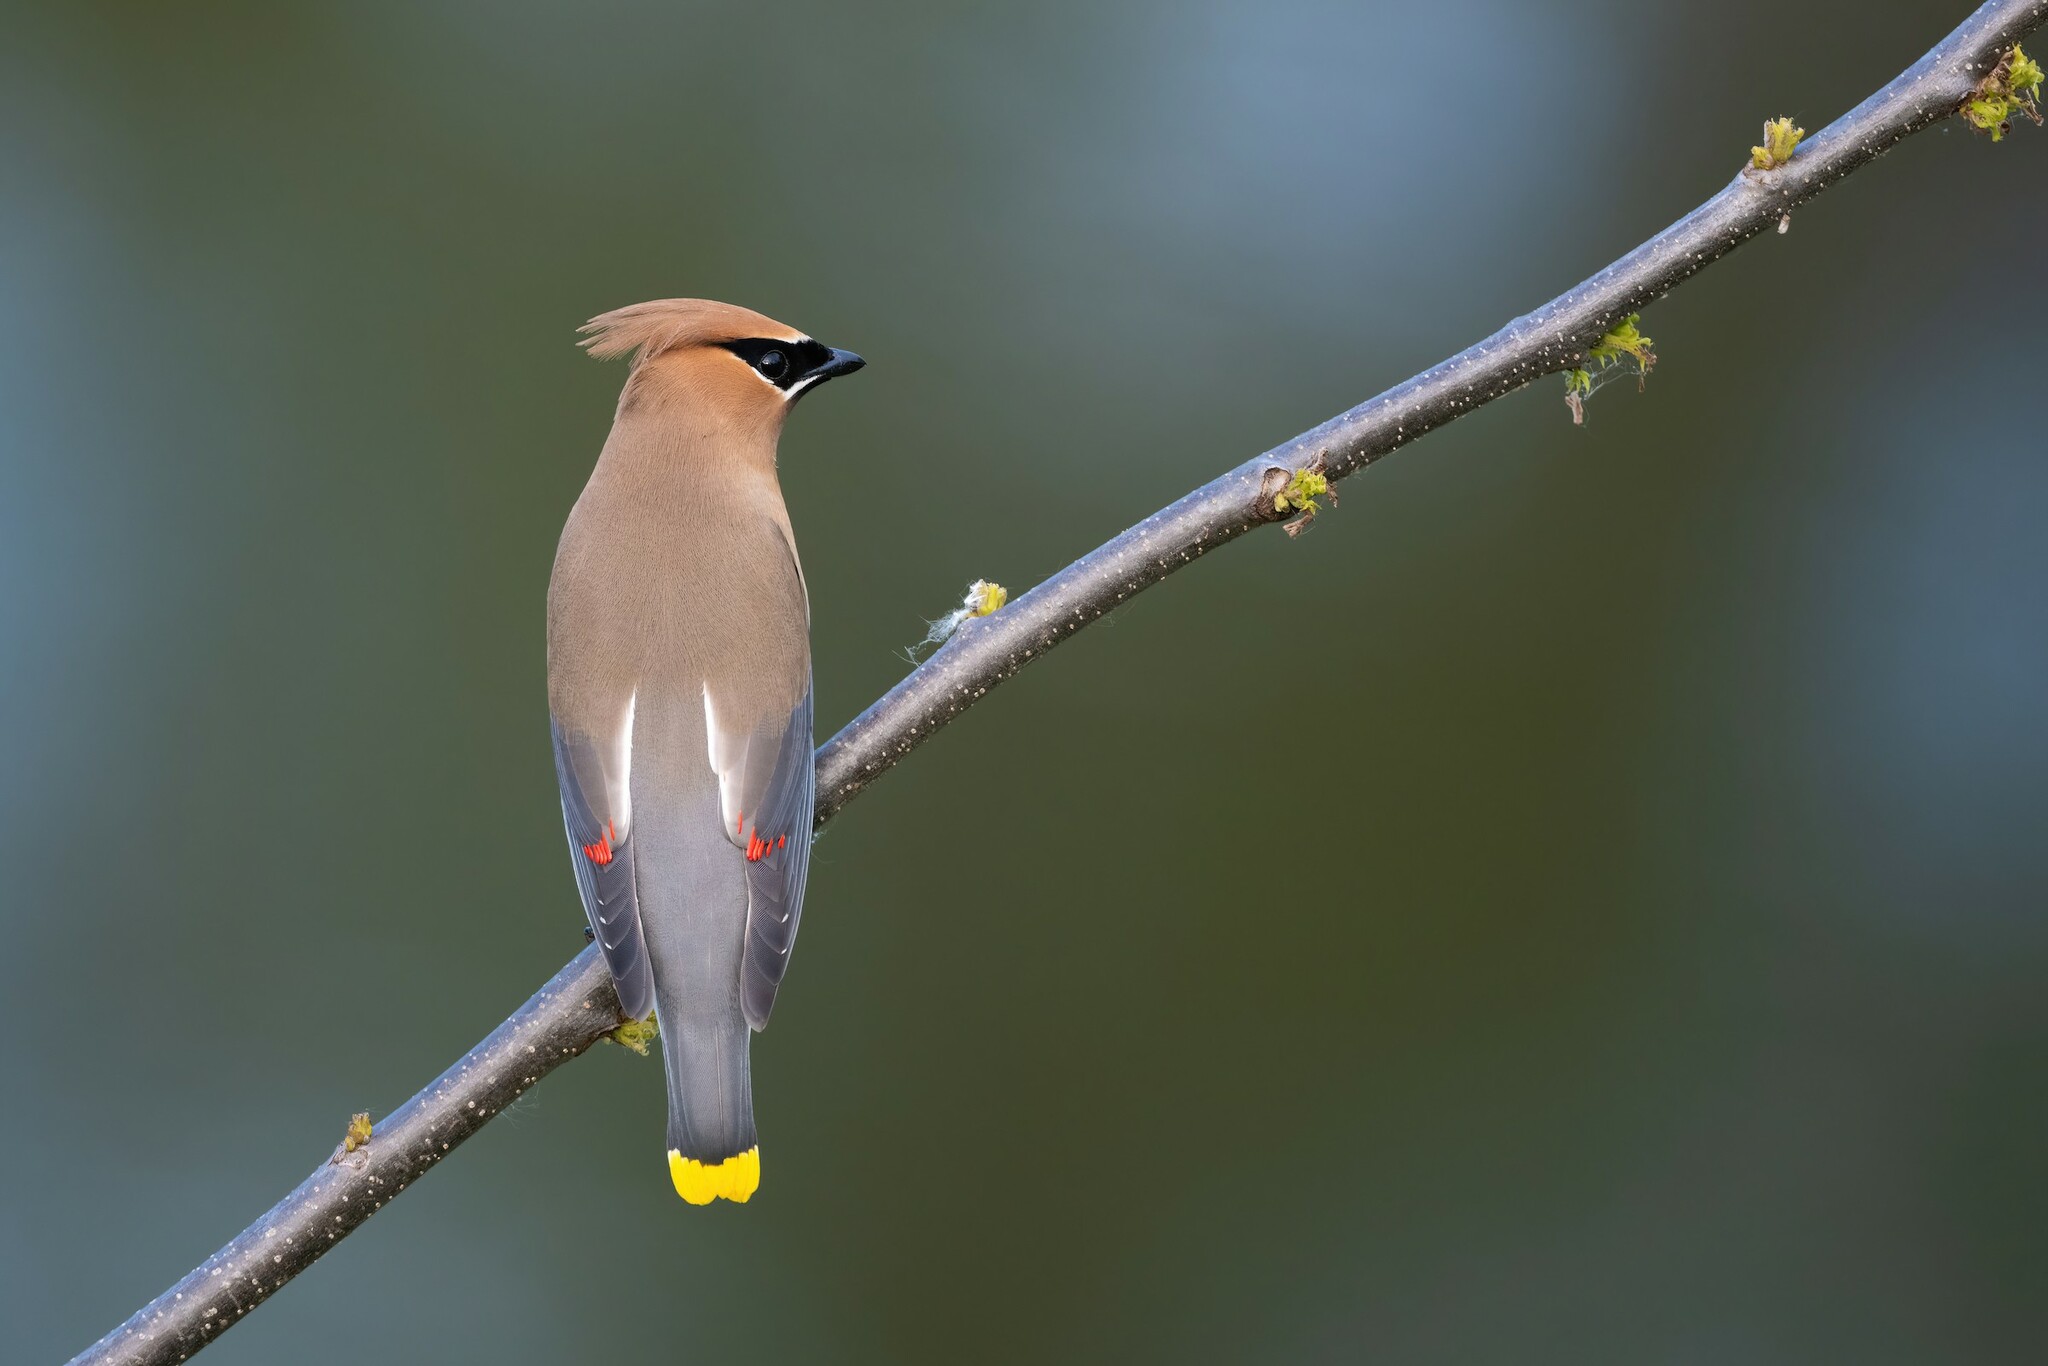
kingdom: Animalia
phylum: Chordata
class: Aves
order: Passeriformes
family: Bombycillidae
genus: Bombycilla
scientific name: Bombycilla cedrorum
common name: Cedar waxwing
